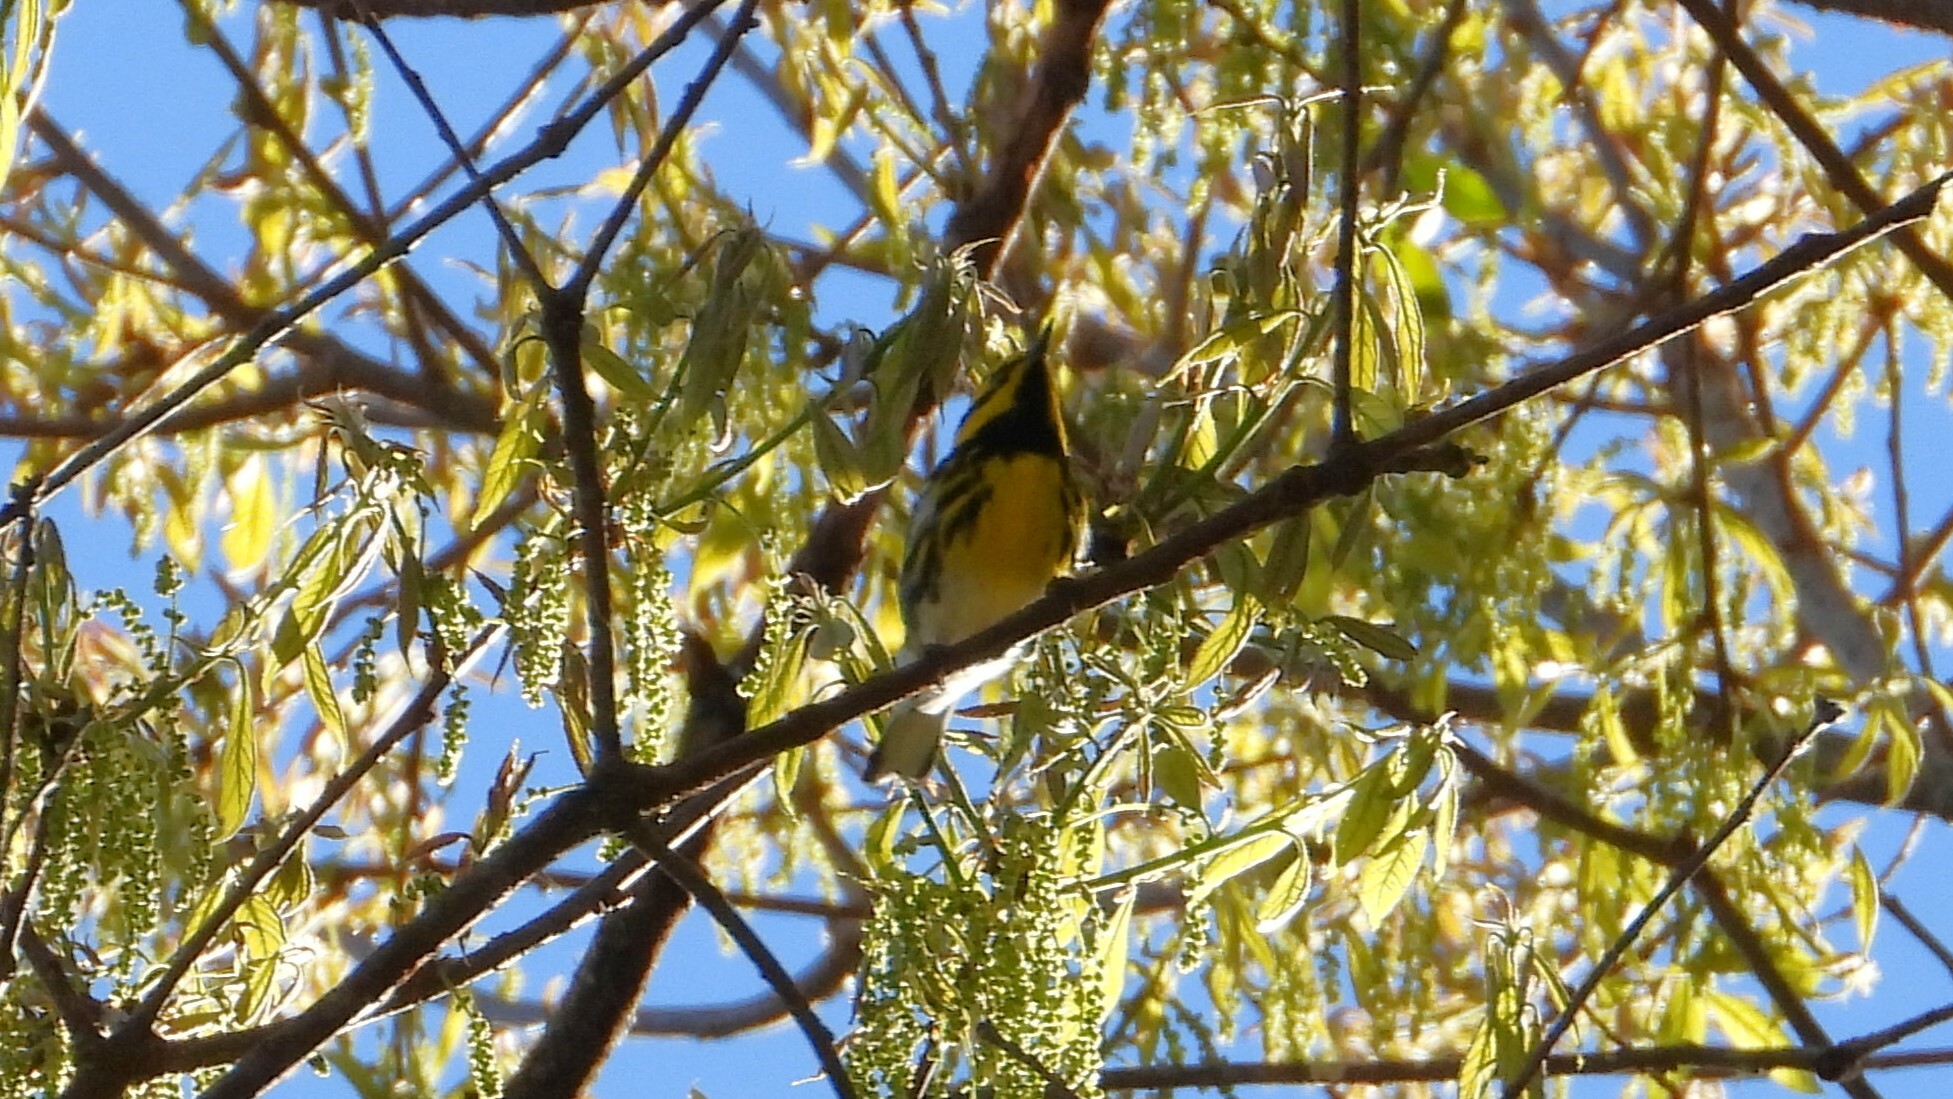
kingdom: Animalia
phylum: Chordata
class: Aves
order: Passeriformes
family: Parulidae
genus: Setophaga
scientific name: Setophaga townsendi
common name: Townsend's warbler
